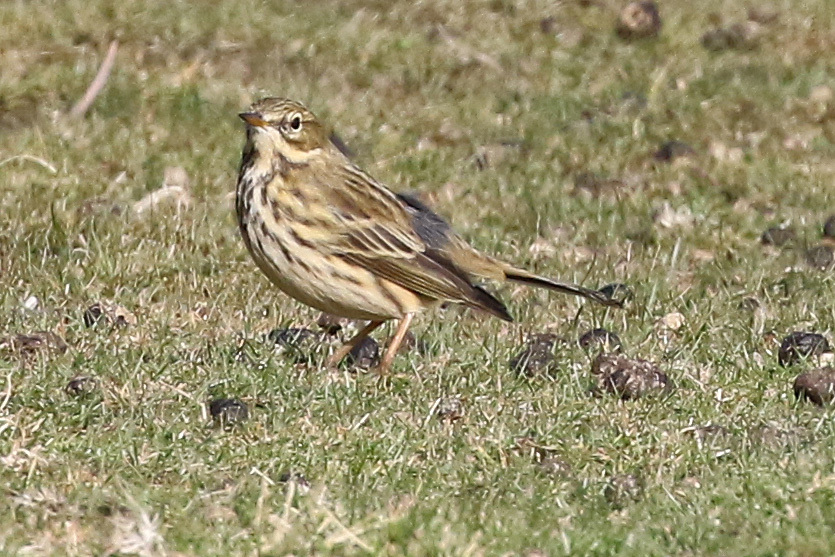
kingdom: Animalia
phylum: Chordata
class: Aves
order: Passeriformes
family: Motacillidae
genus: Anthus
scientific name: Anthus pratensis
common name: Meadow pipit
